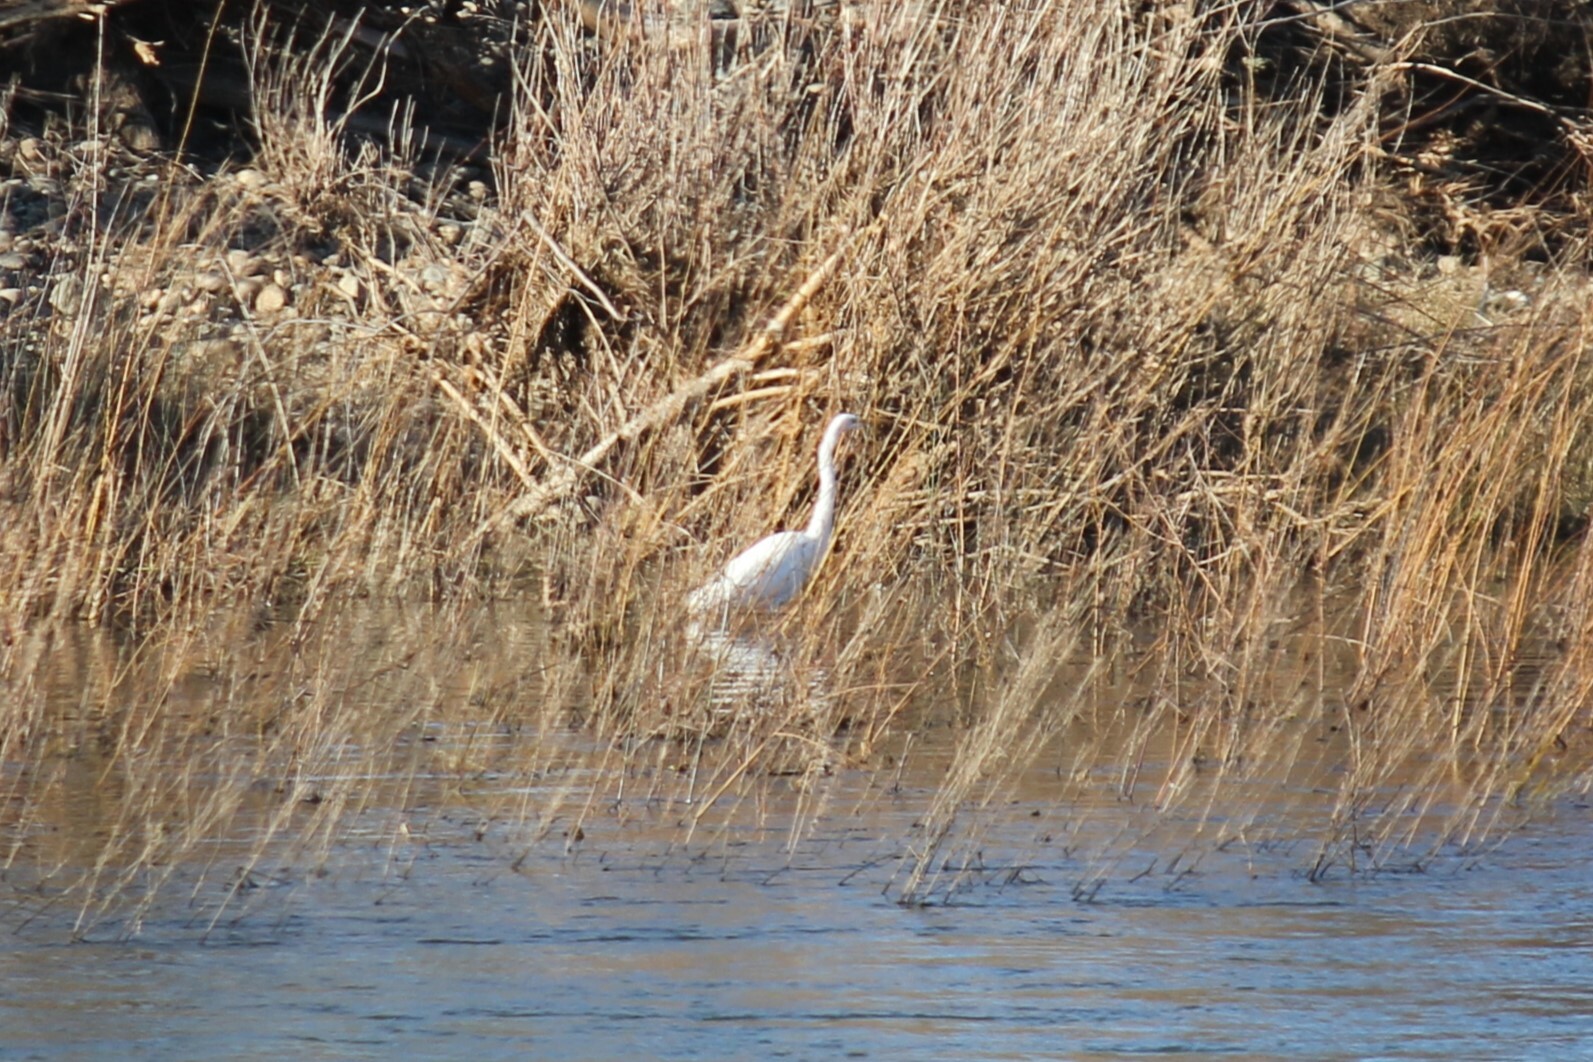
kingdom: Animalia
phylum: Chordata
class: Aves
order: Pelecaniformes
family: Ardeidae
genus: Ardea
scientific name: Ardea alba
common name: Great egret
